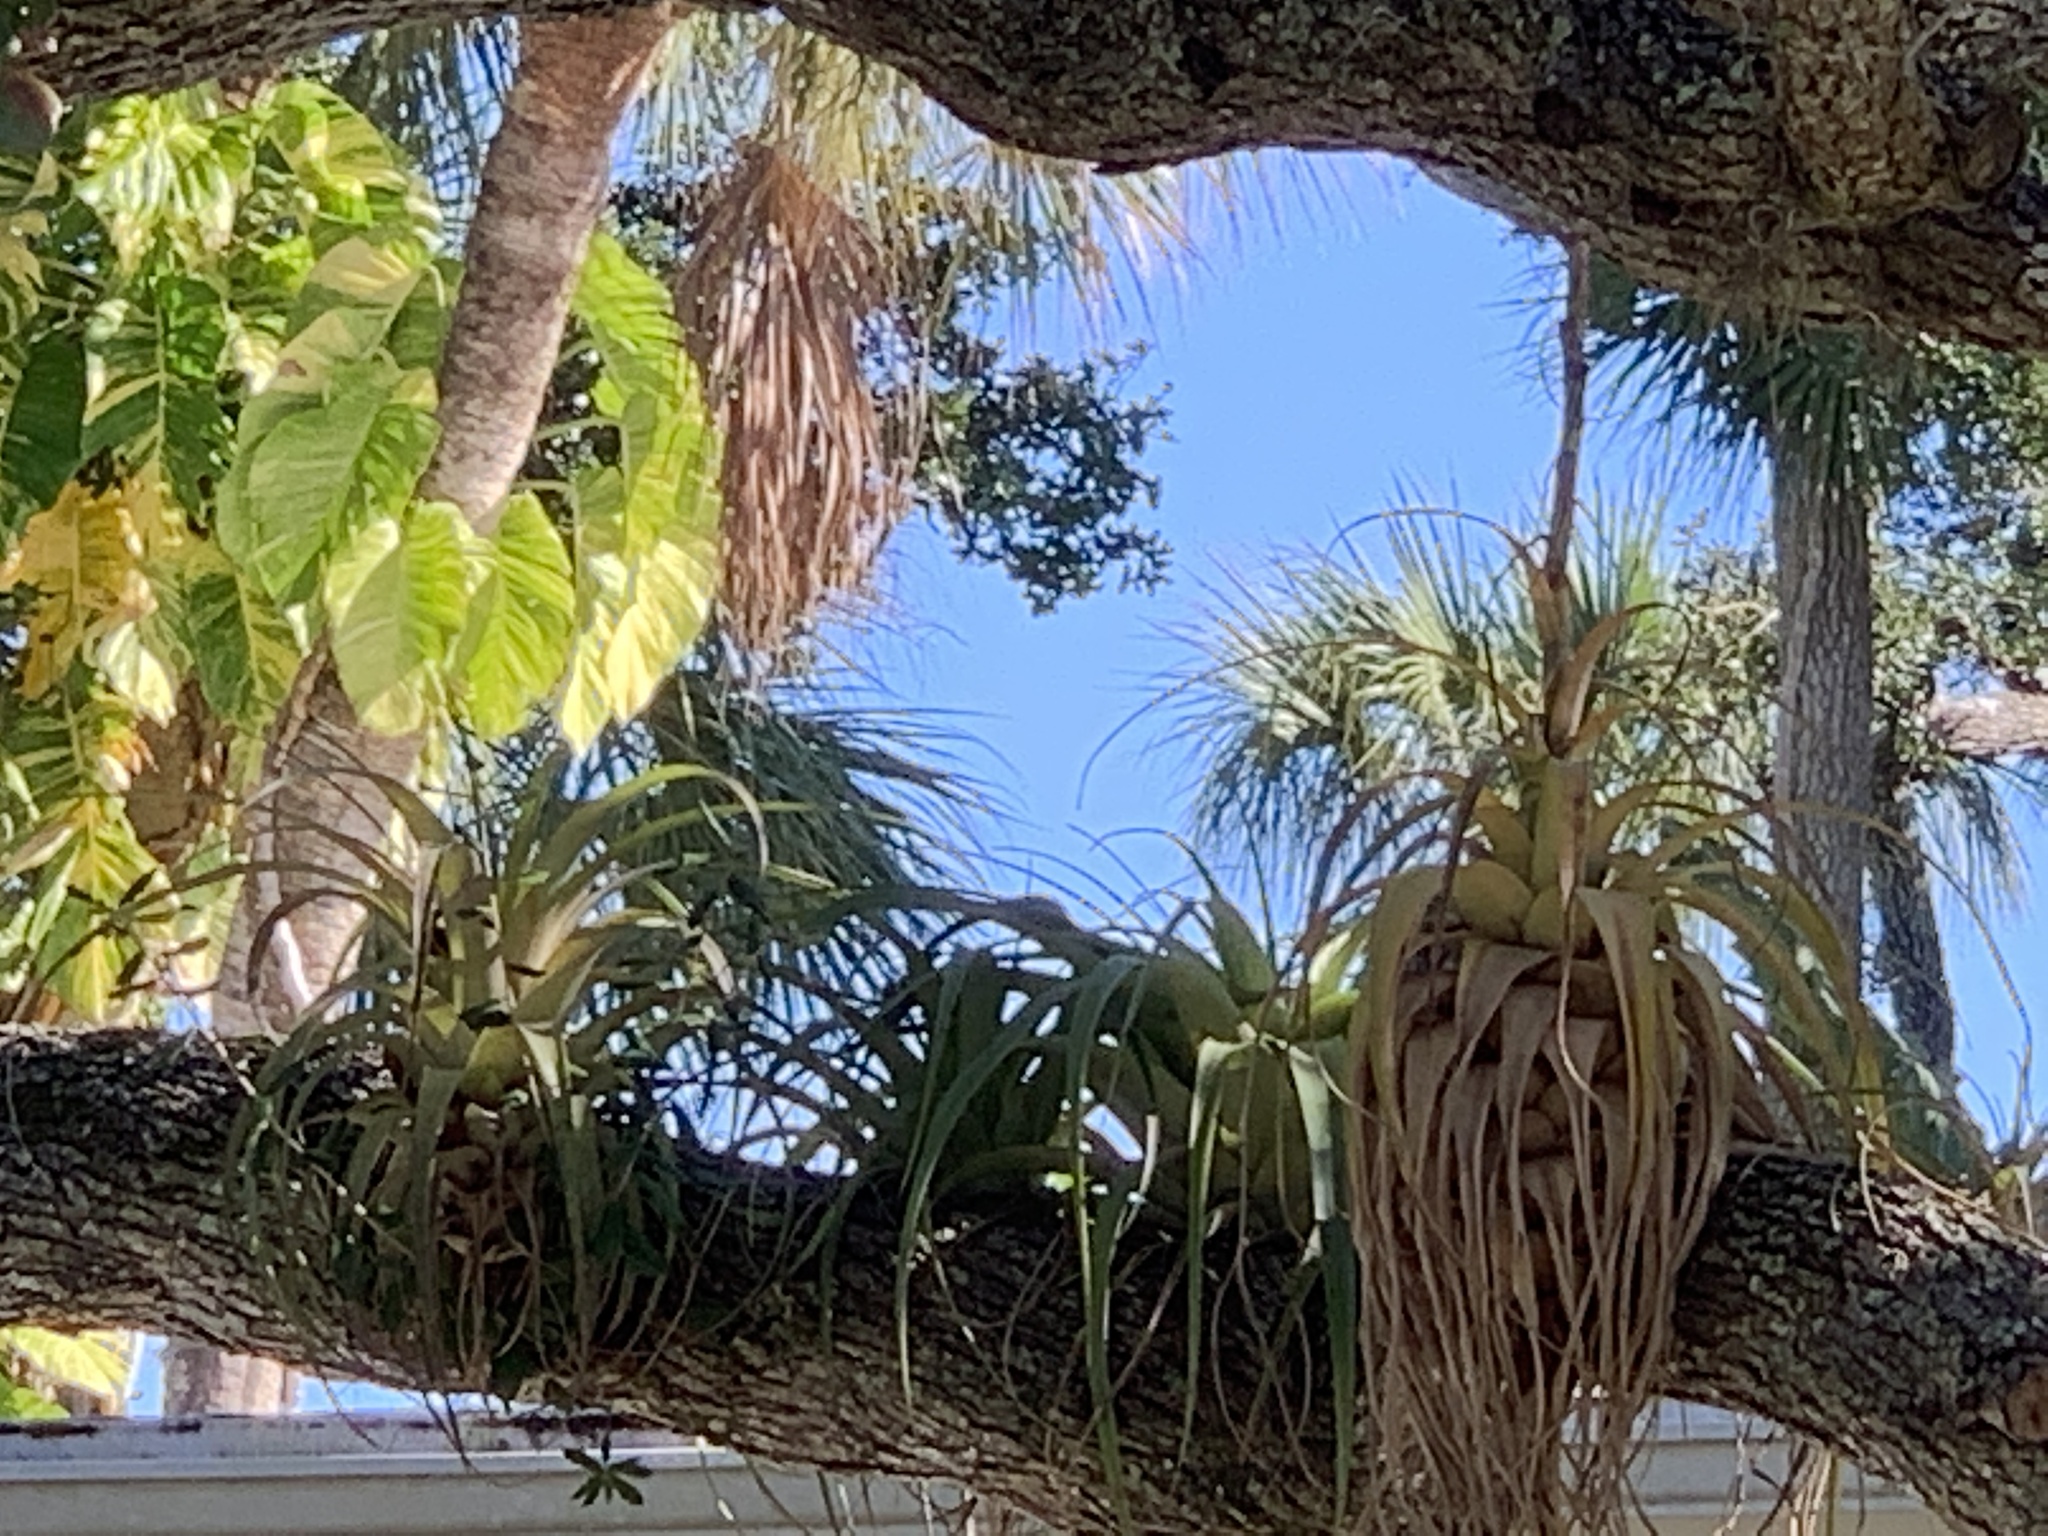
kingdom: Plantae
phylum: Tracheophyta
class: Liliopsida
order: Poales
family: Bromeliaceae
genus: Tillandsia
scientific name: Tillandsia utriculata
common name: Wild pine
